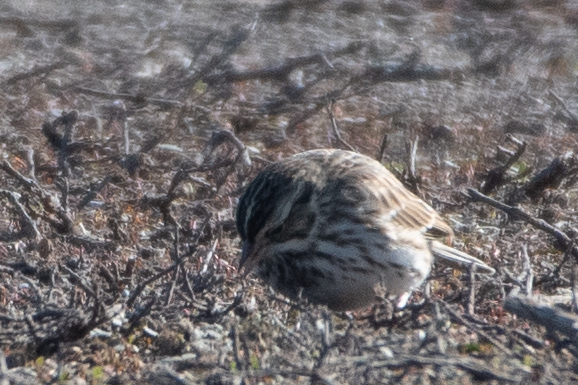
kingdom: Animalia
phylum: Chordata
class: Aves
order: Passeriformes
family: Passerellidae
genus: Passerculus
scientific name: Passerculus sandwichensis
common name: Savannah sparrow
